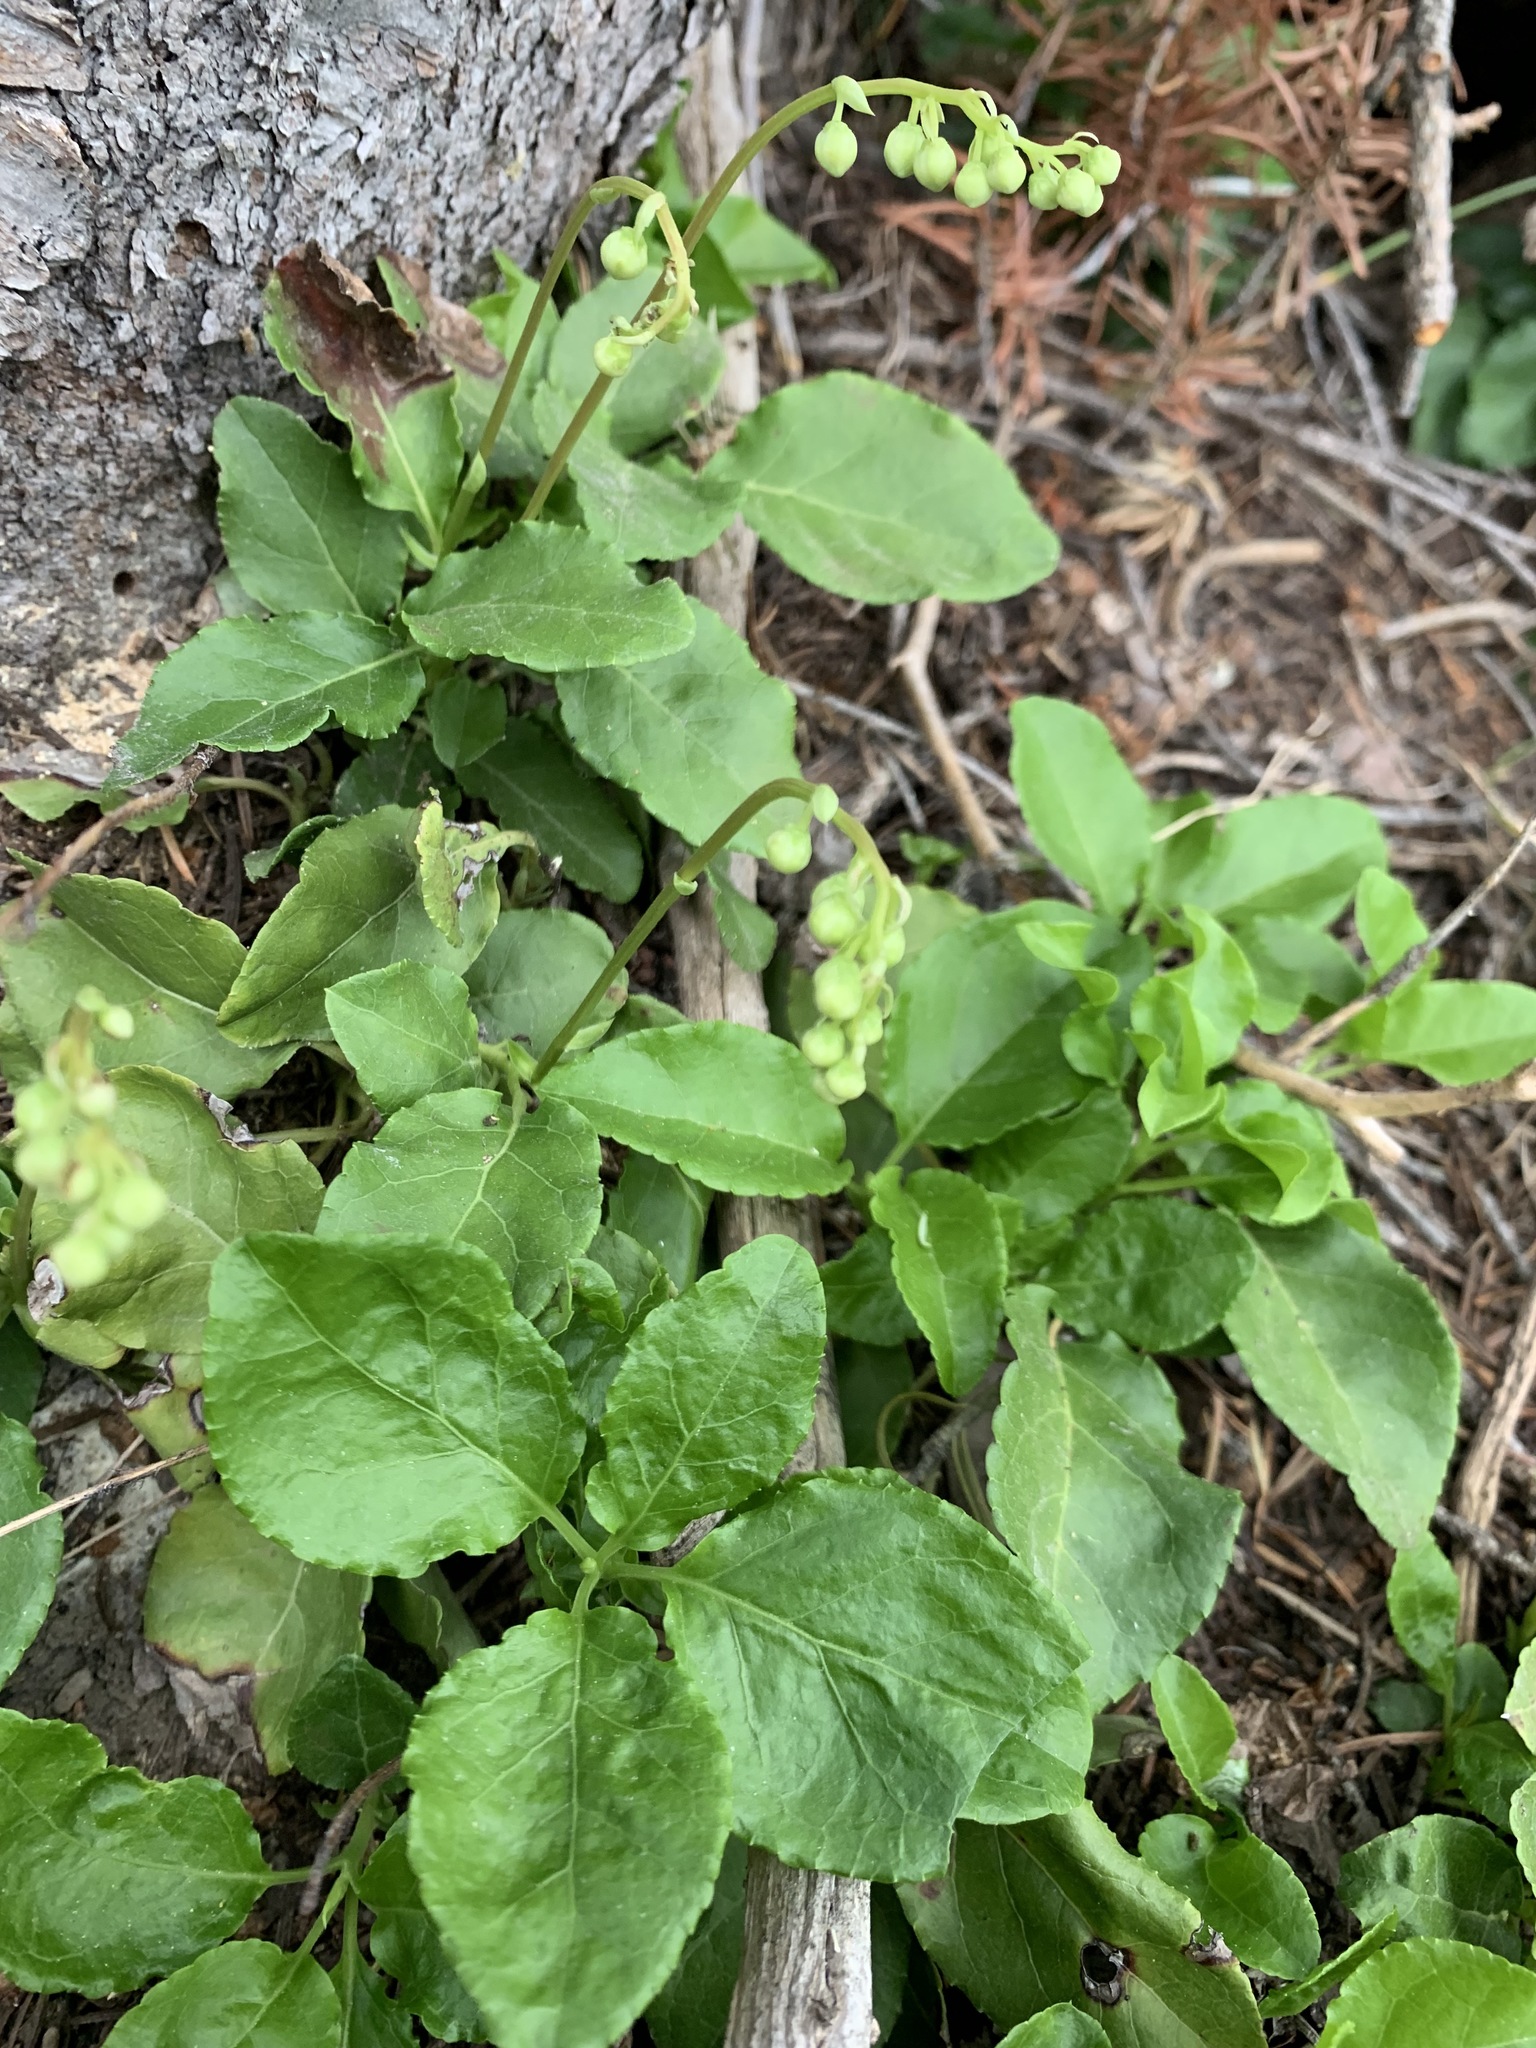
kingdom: Plantae
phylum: Tracheophyta
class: Magnoliopsida
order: Ericales
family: Ericaceae
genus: Orthilia
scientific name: Orthilia secunda
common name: One-sided orthilia
